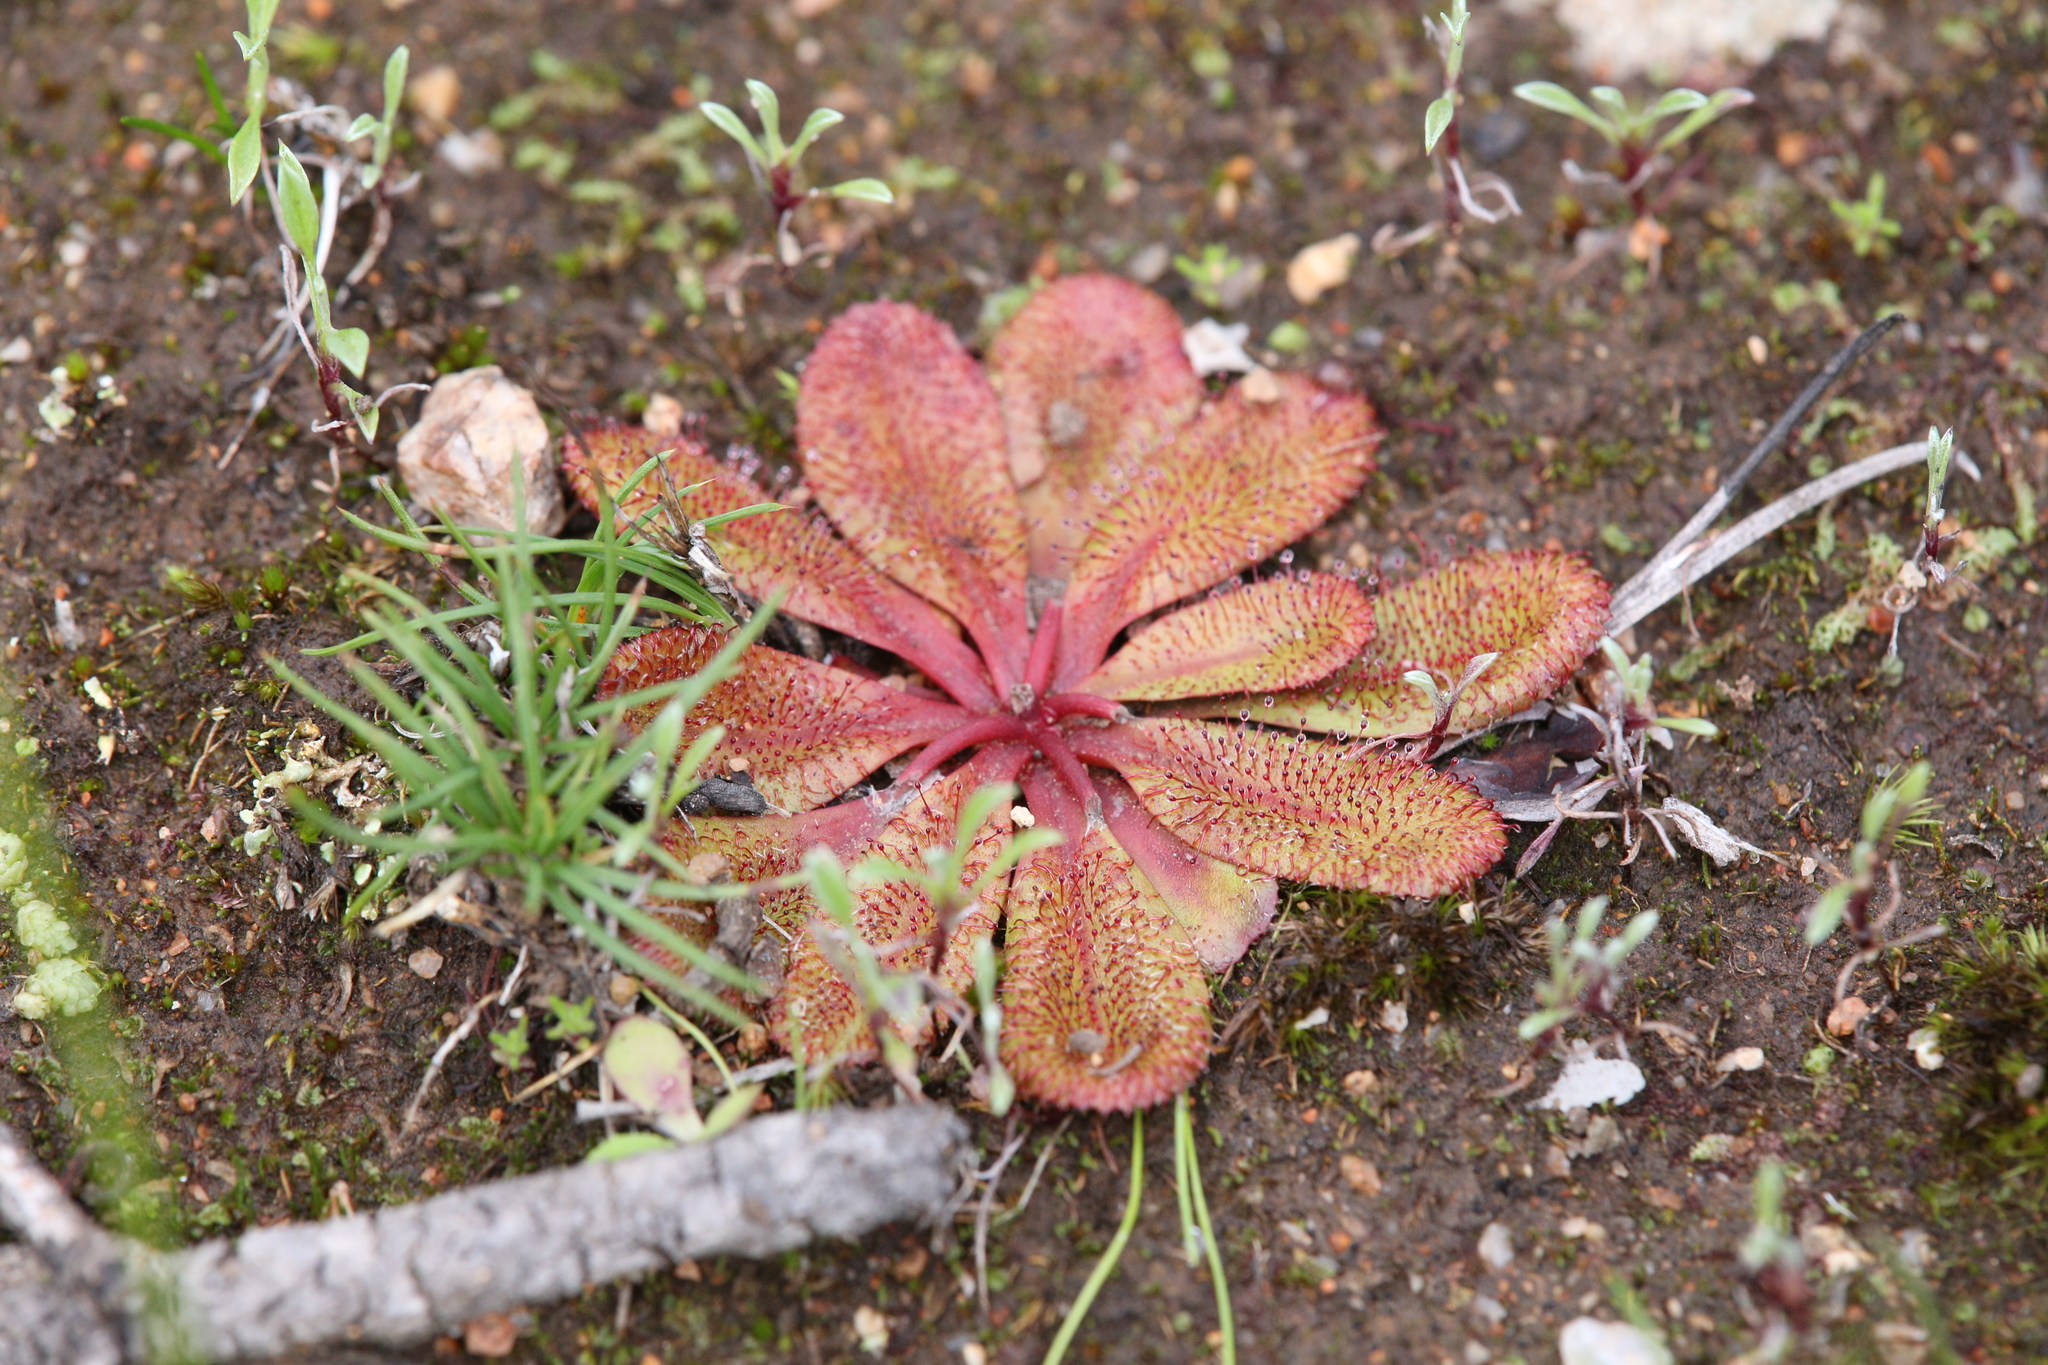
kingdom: Plantae
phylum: Tracheophyta
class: Magnoliopsida
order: Caryophyllales
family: Droseraceae
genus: Drosera
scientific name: Drosera rosulata
